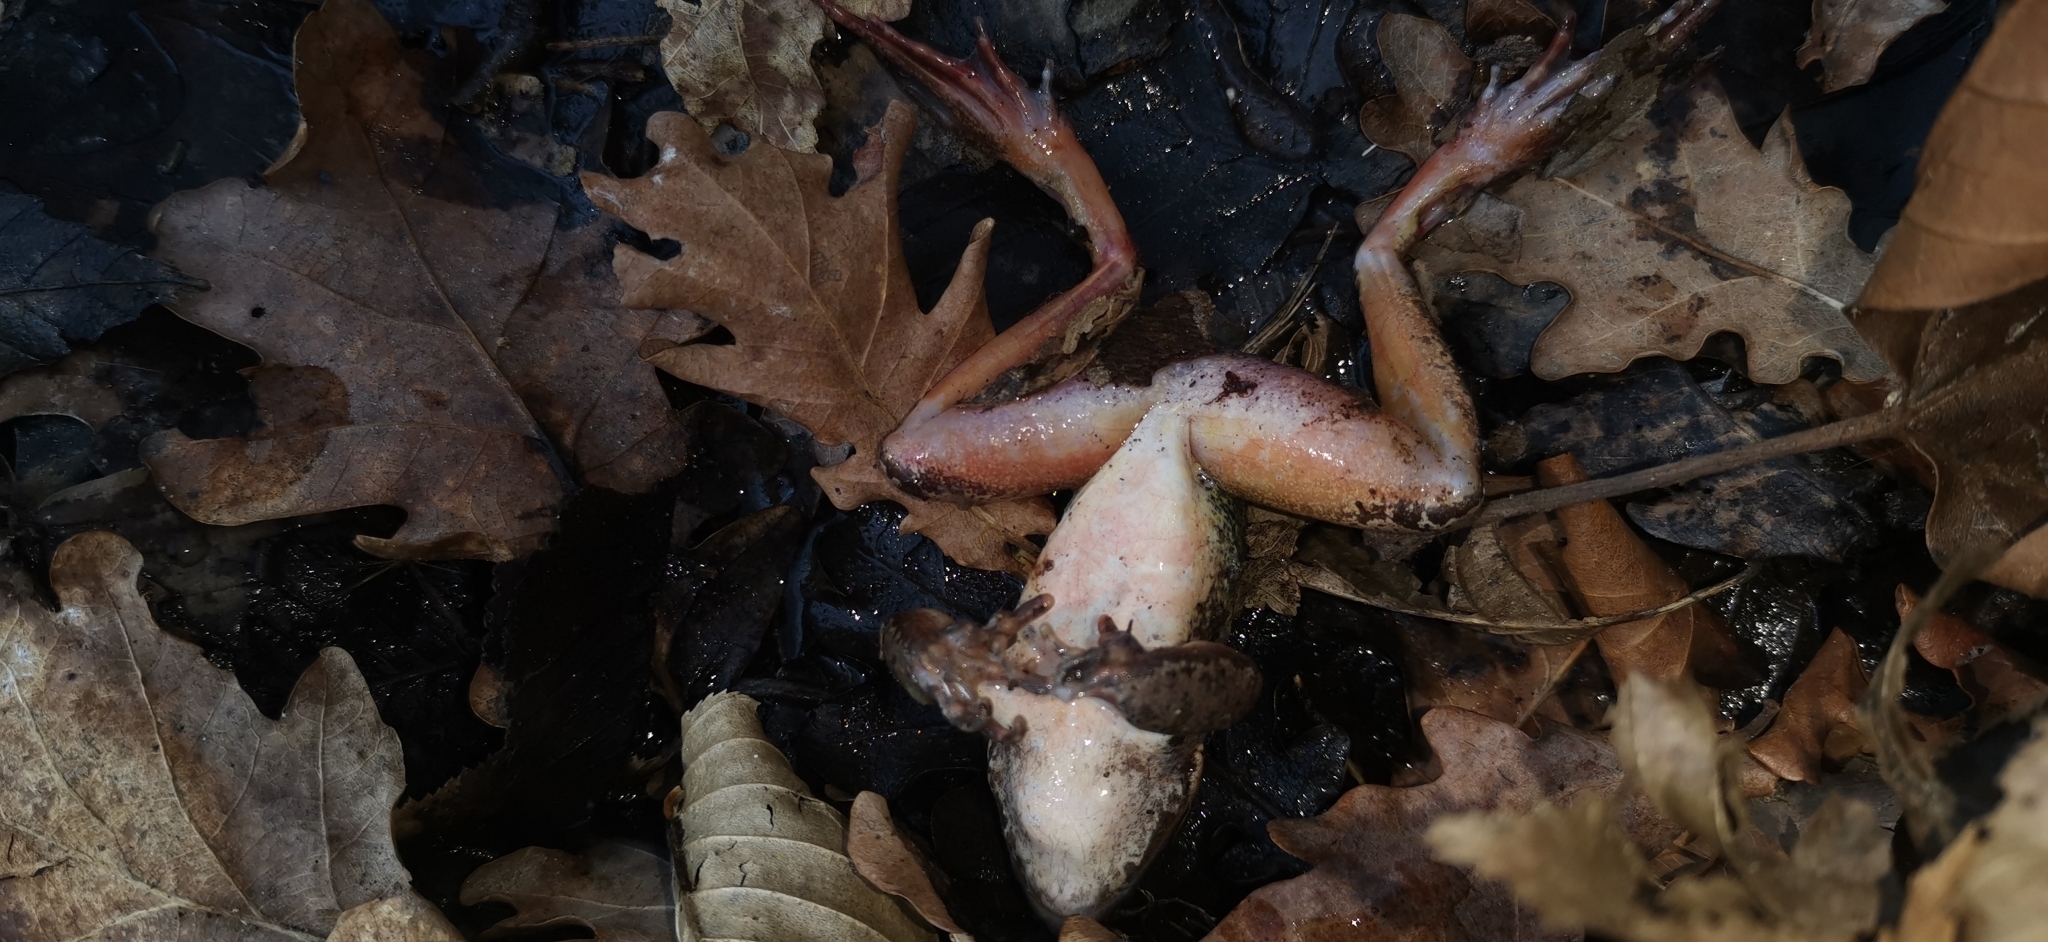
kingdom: Animalia
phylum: Chordata
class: Amphibia
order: Anura
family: Ranidae
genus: Rana
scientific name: Rana dalmatina
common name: Agile frog
